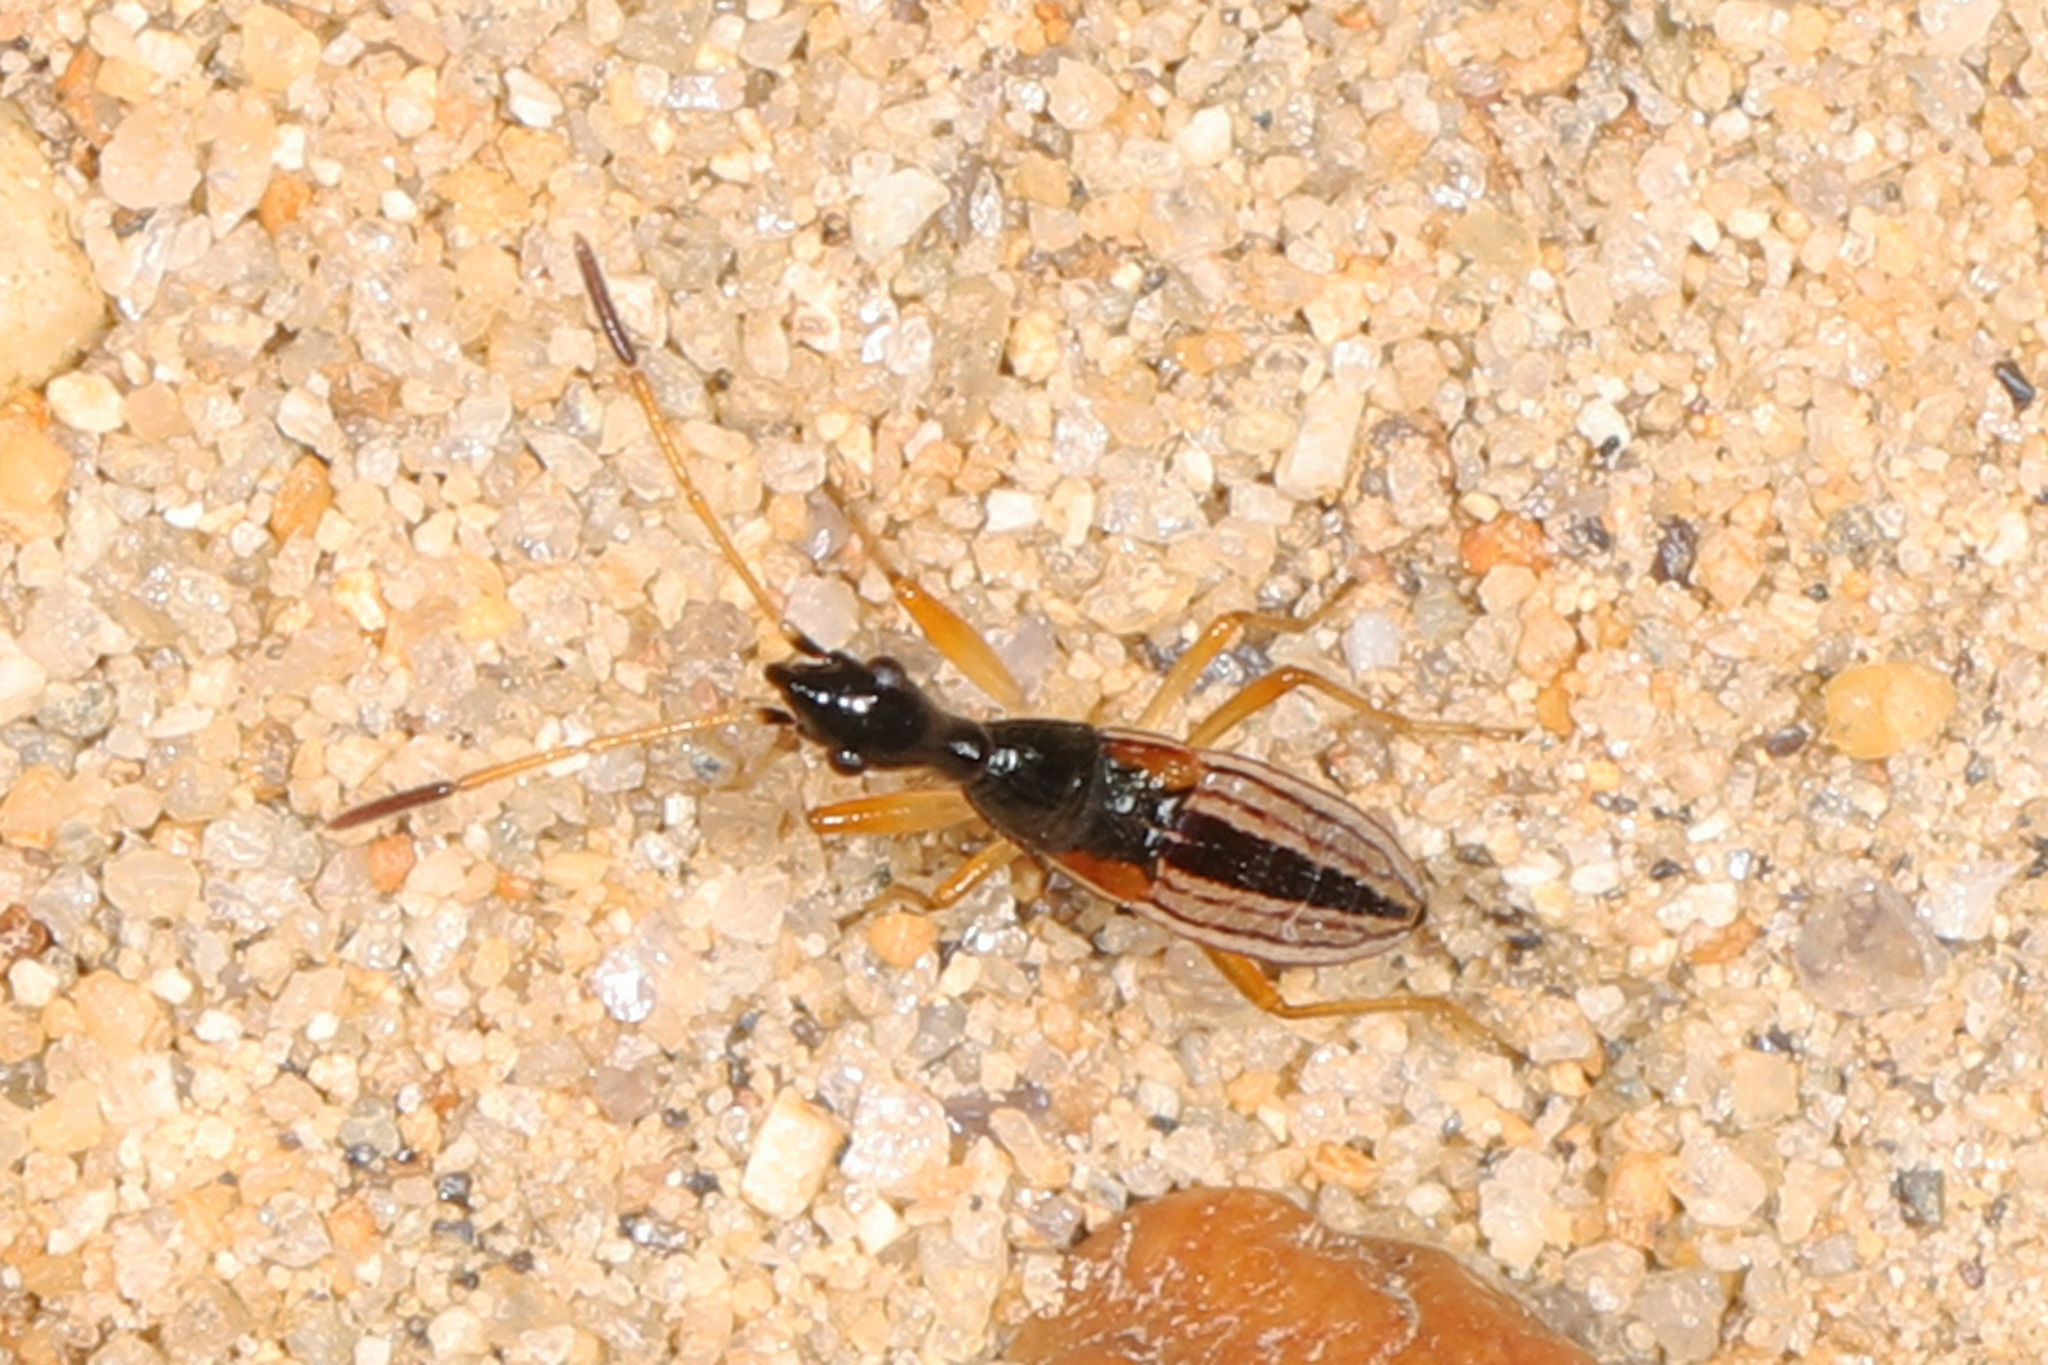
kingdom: Animalia
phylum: Arthropoda
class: Insecta
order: Hemiptera
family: Rhyparochromidae
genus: Myodocha
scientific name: Myodocha serripes
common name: Long-necked seed bug
